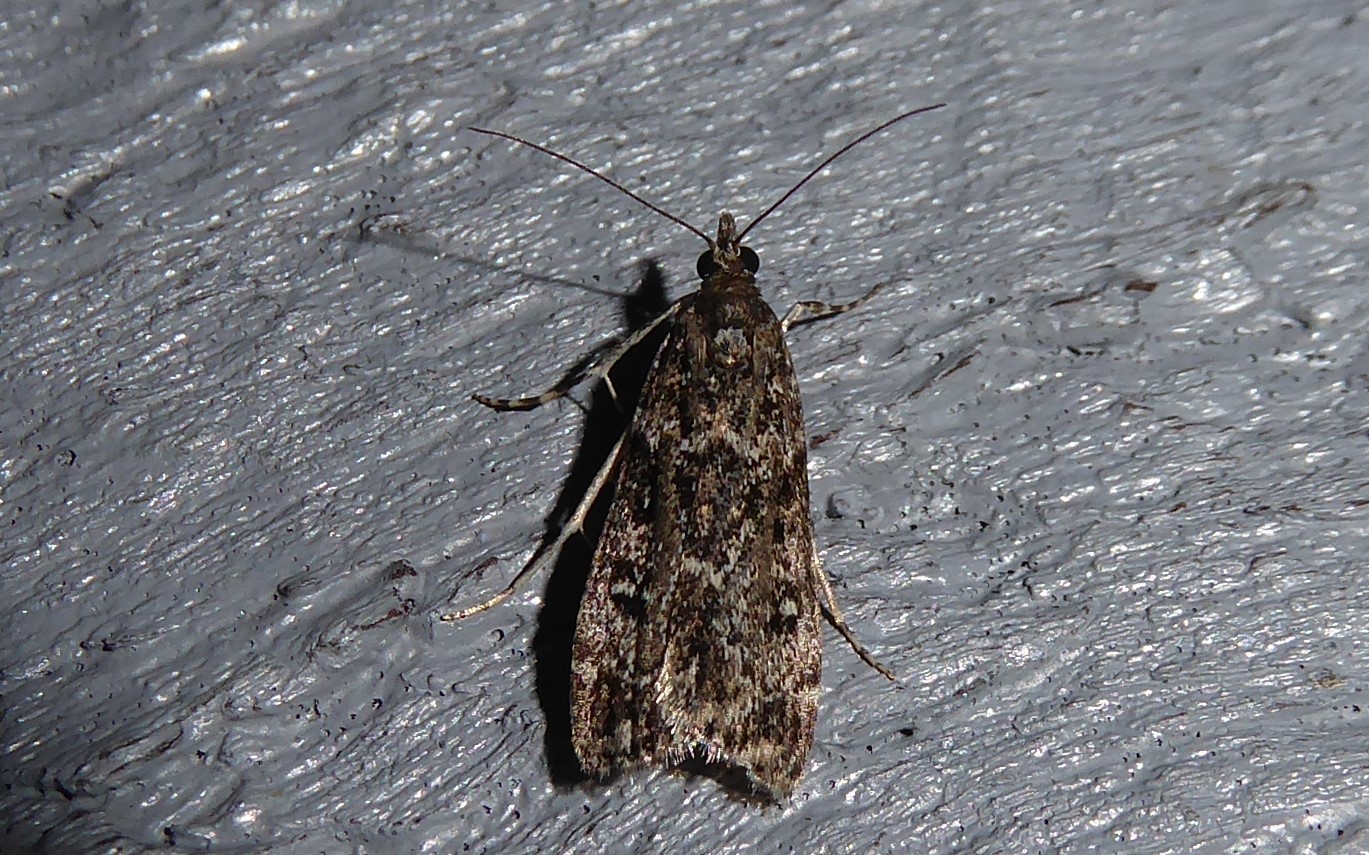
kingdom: Animalia
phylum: Arthropoda
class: Insecta
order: Lepidoptera
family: Crambidae
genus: Eudonia
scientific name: Eudonia philerga
